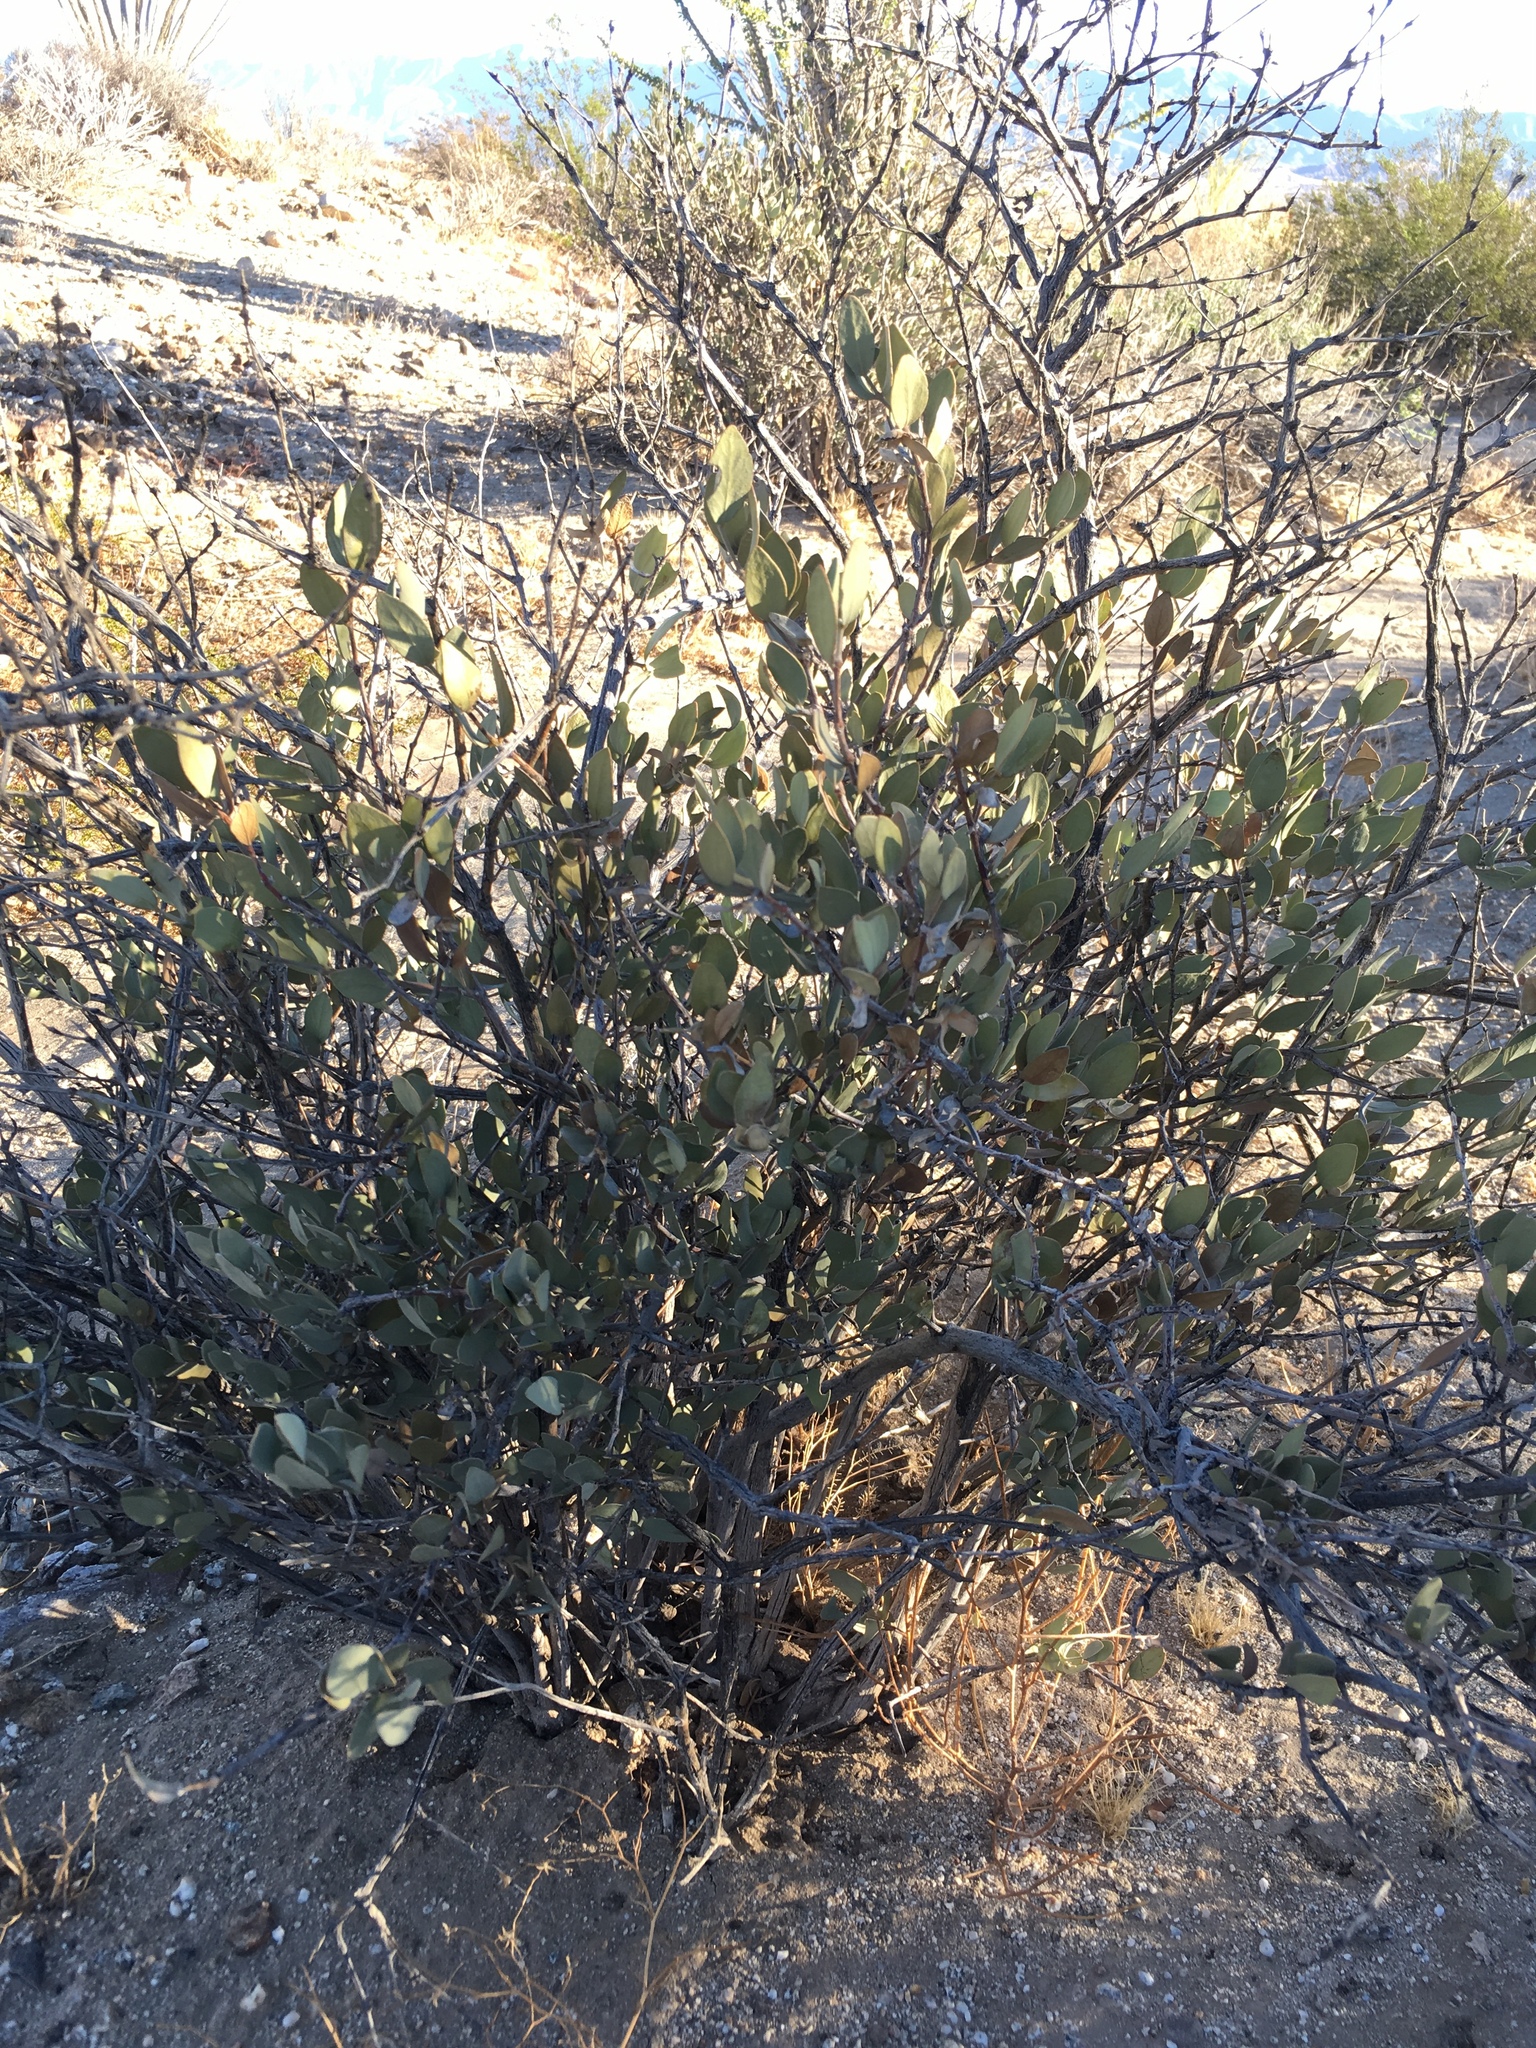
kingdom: Plantae
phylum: Tracheophyta
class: Magnoliopsida
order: Caryophyllales
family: Simmondsiaceae
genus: Simmondsia
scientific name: Simmondsia chinensis
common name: Jojoba
